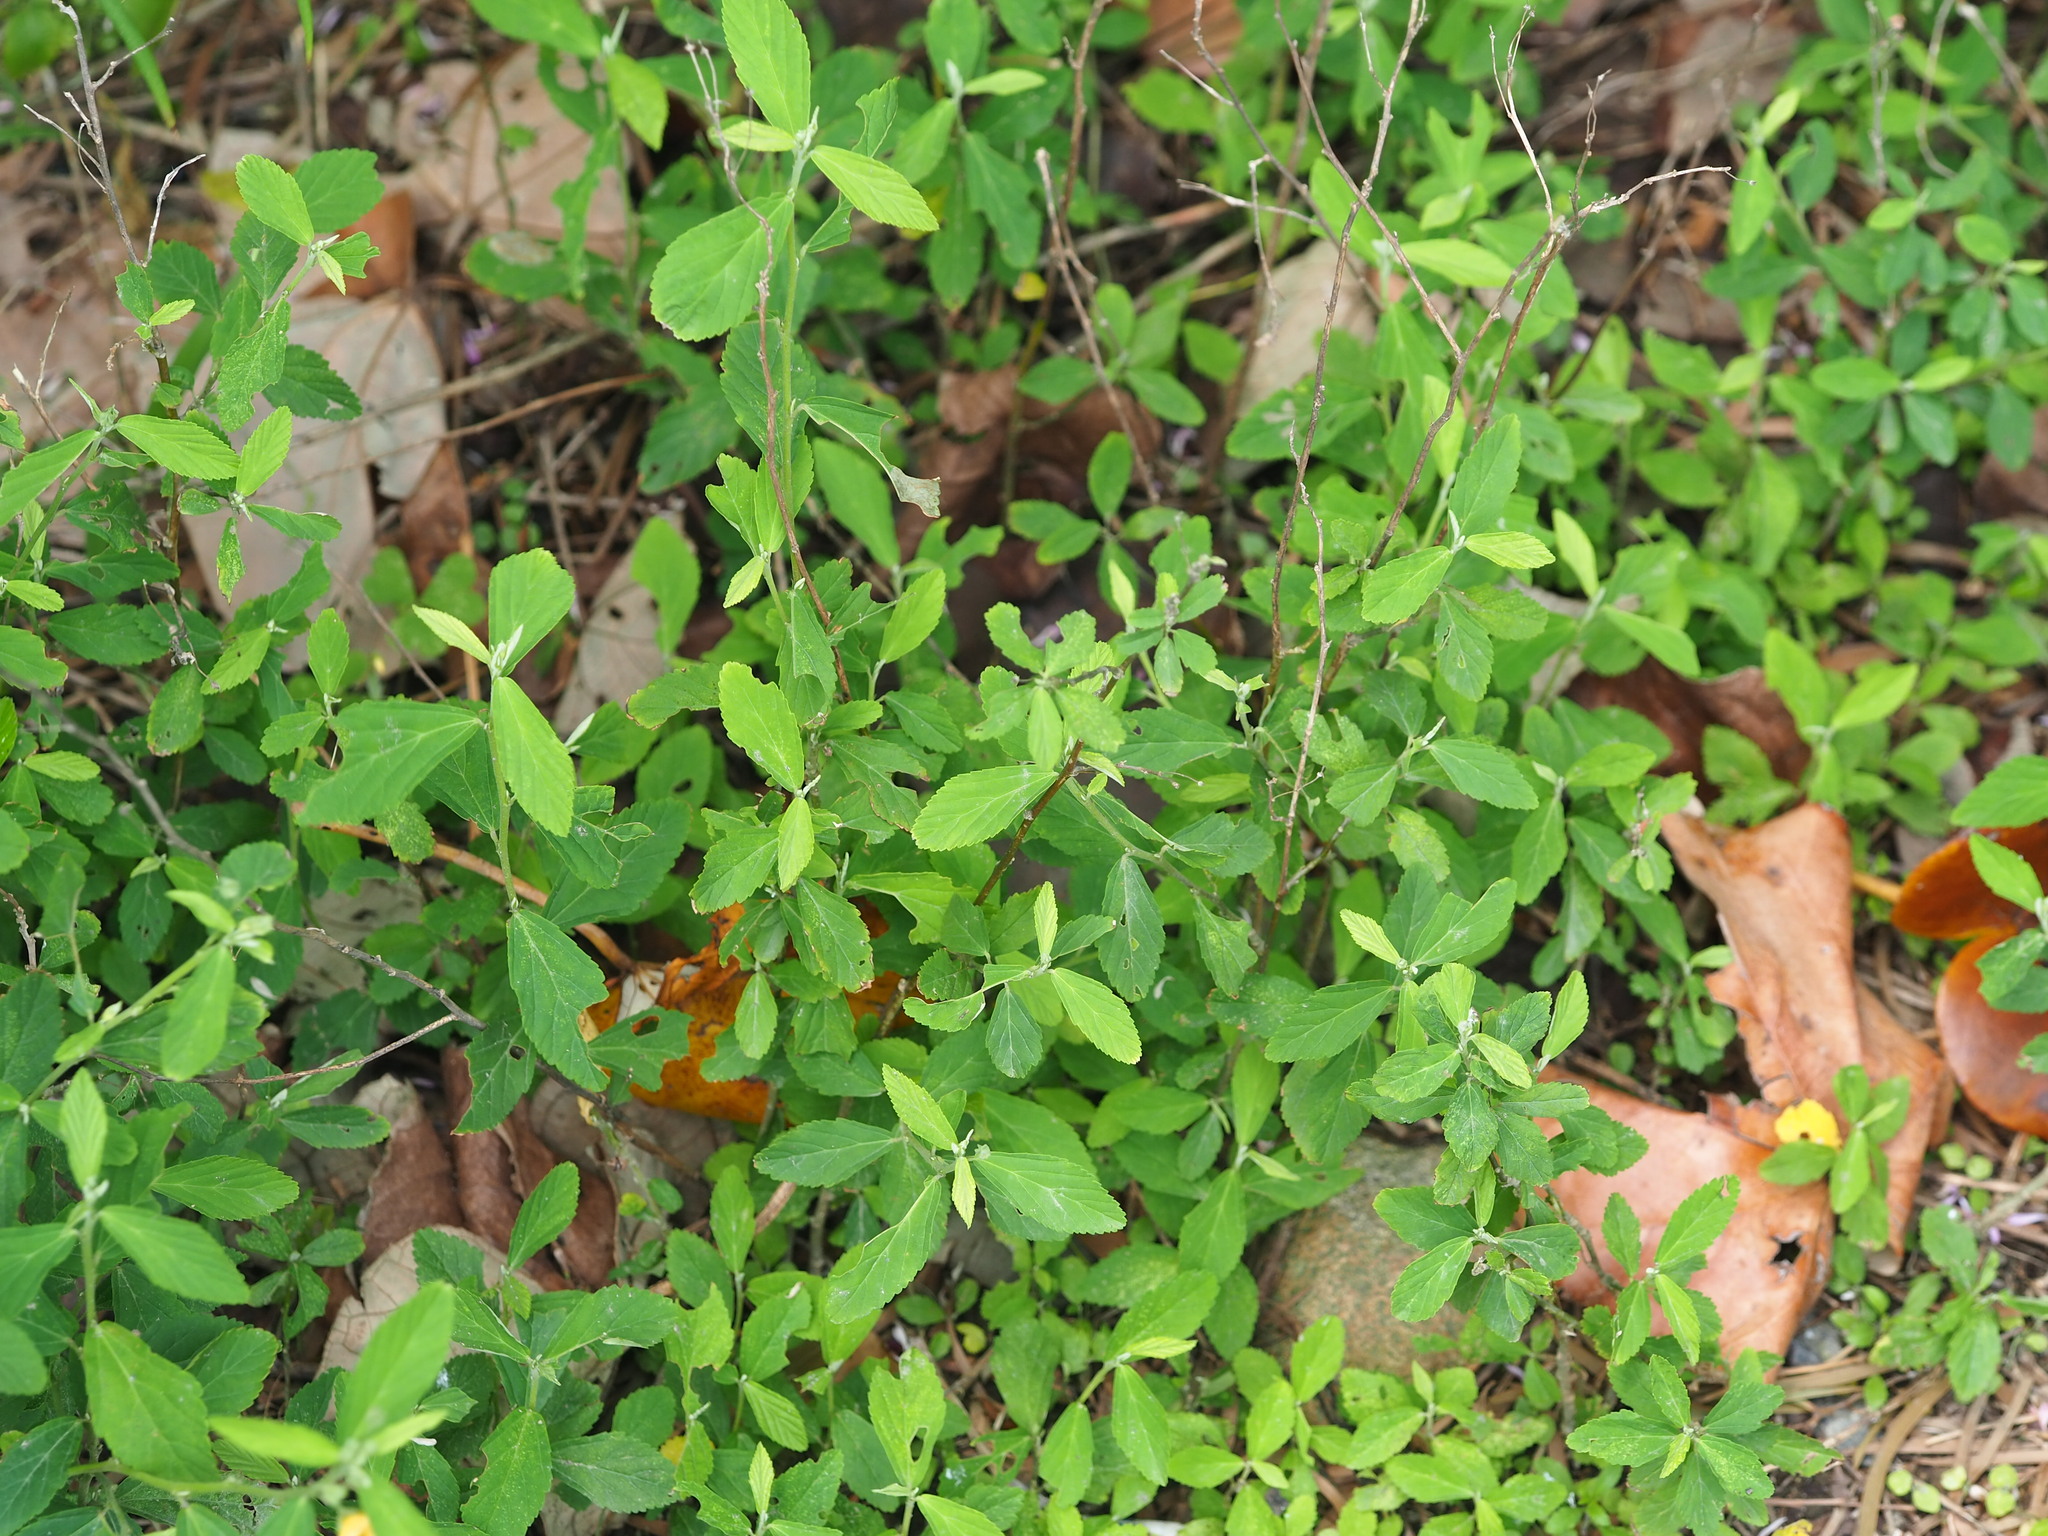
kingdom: Plantae
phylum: Tracheophyta
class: Magnoliopsida
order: Malvales
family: Malvaceae
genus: Sida
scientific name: Sida rhombifolia
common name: Queensland-hemp
